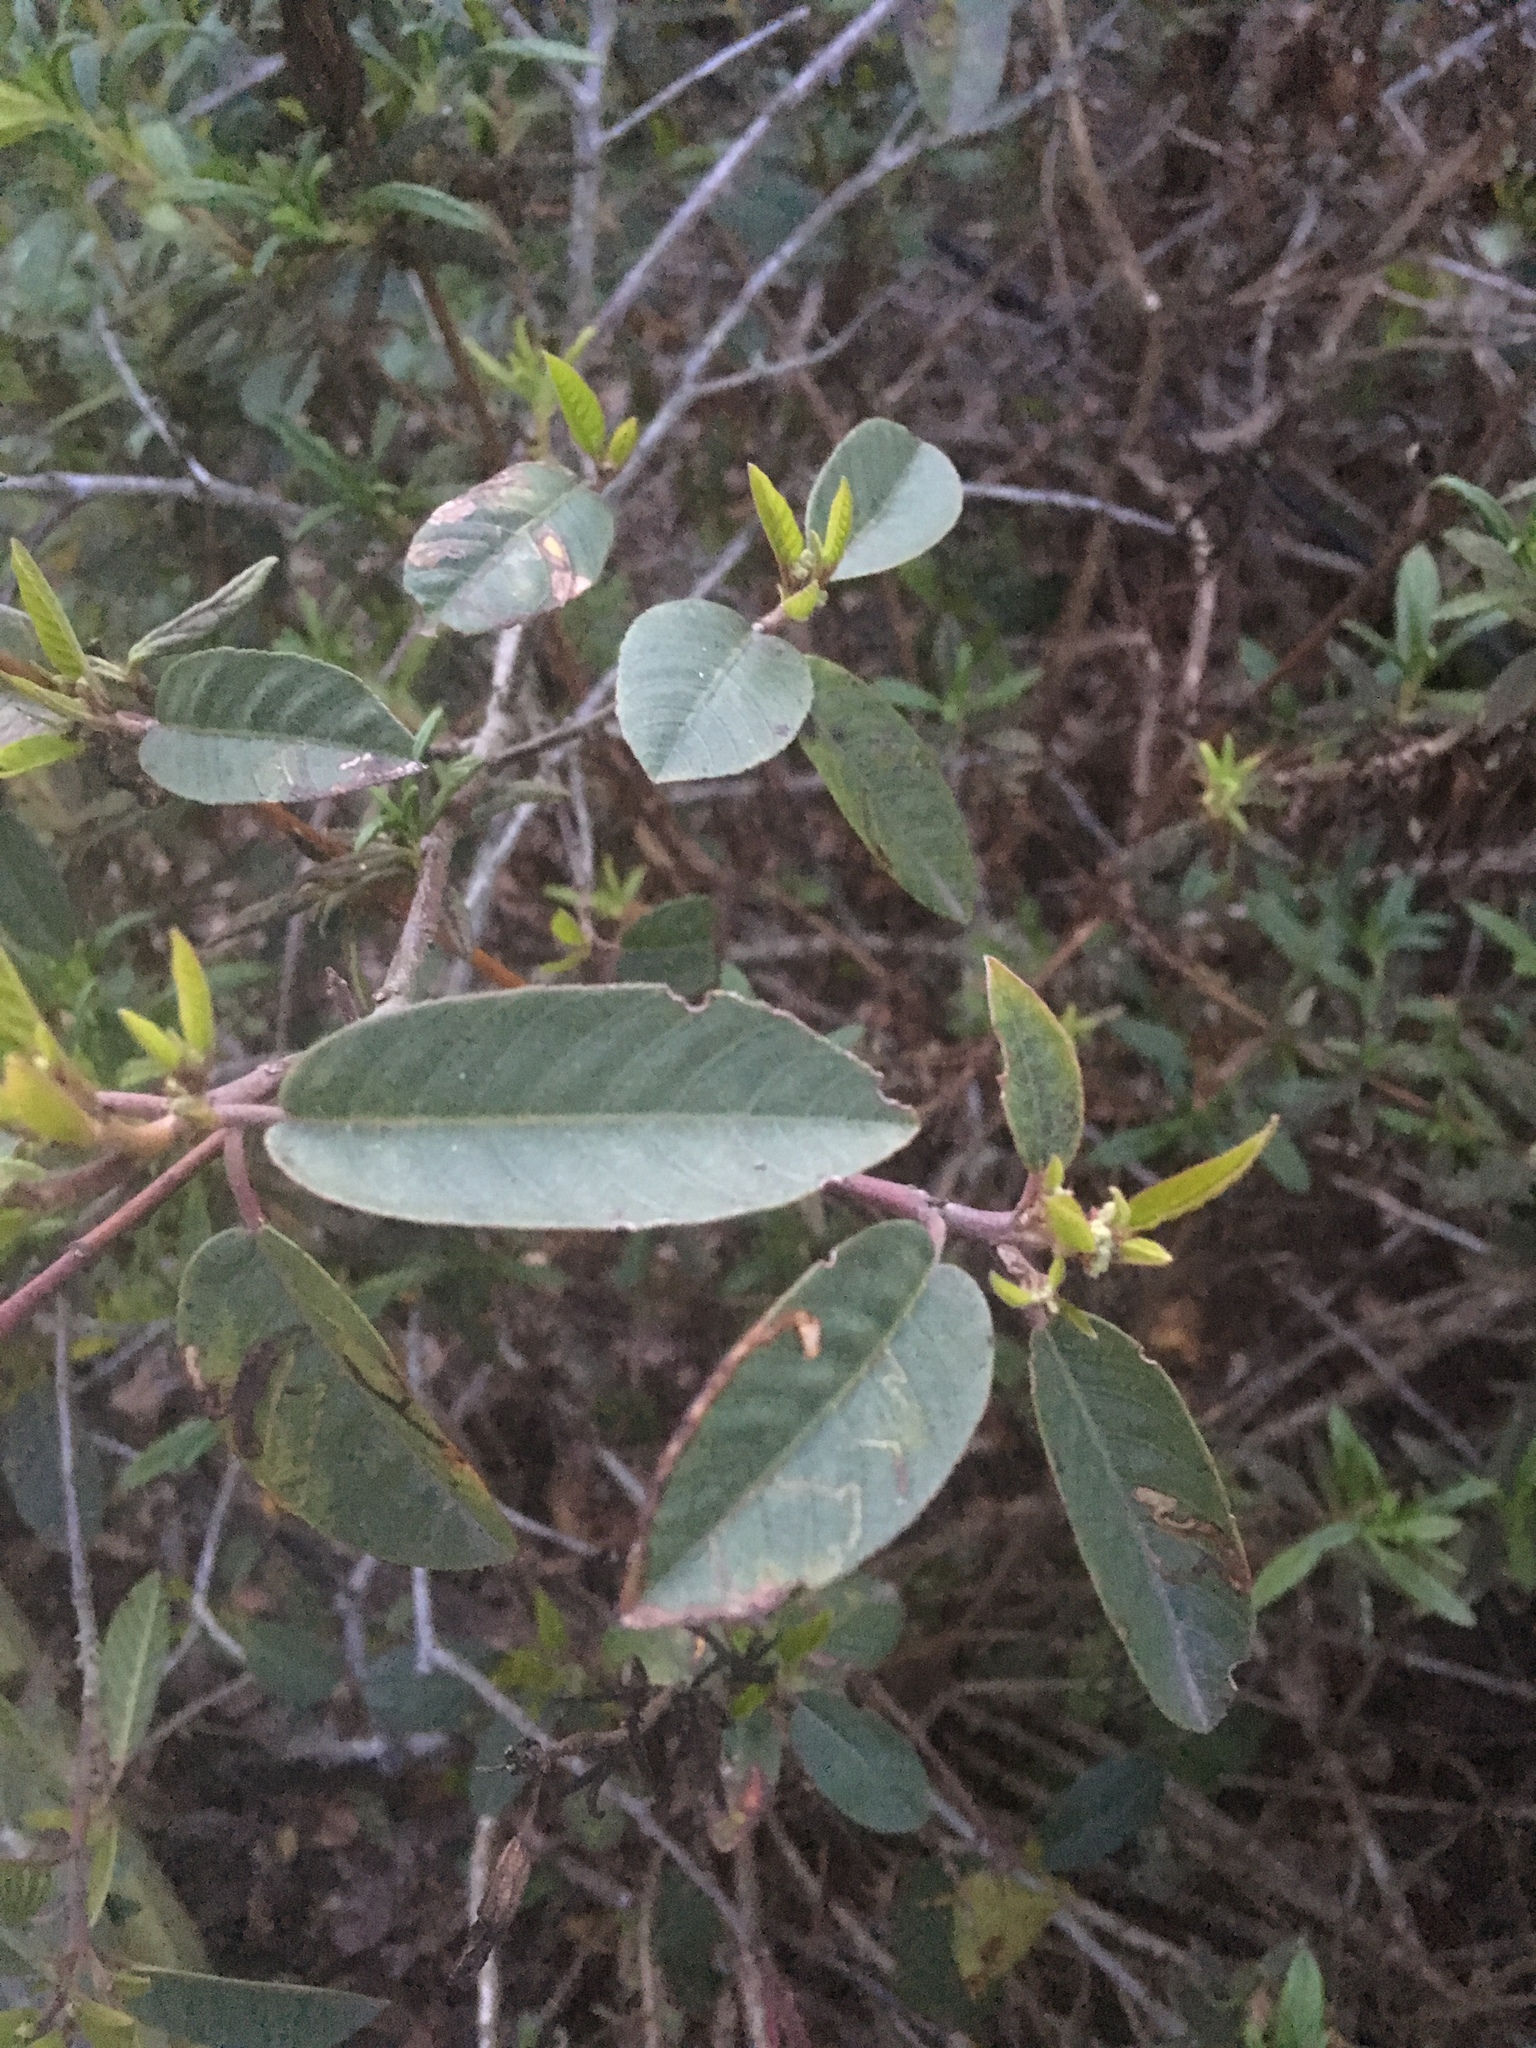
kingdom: Plantae
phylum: Tracheophyta
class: Magnoliopsida
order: Rosales
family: Rhamnaceae
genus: Frangula
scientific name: Frangula californica
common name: California buckthorn
